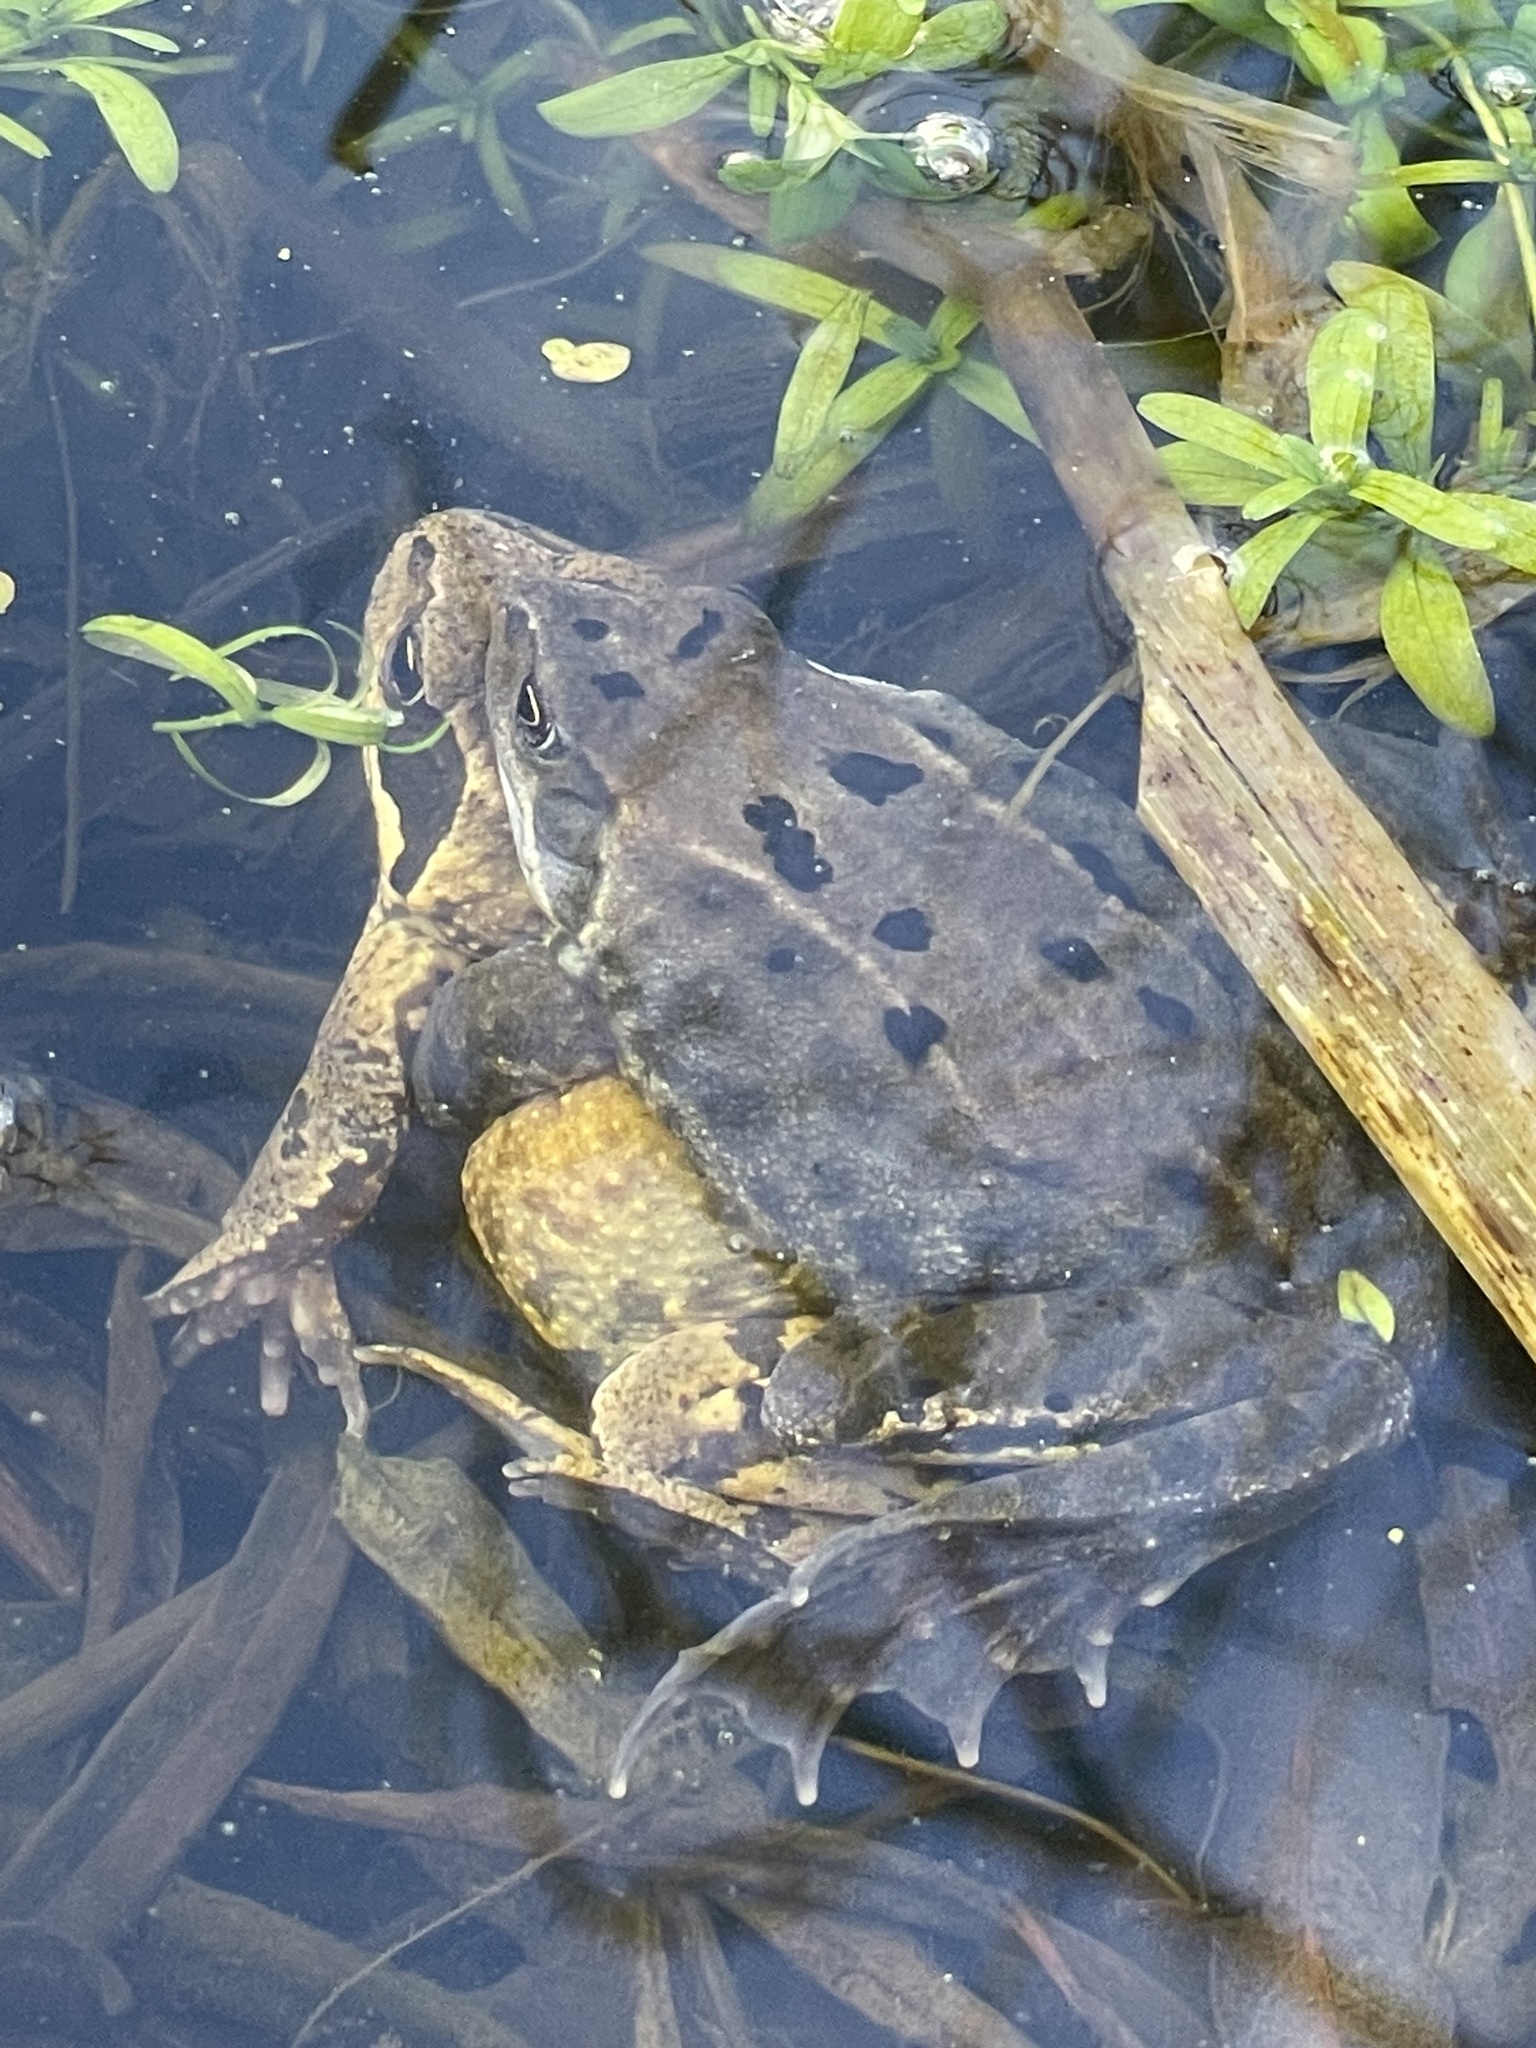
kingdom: Animalia
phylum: Chordata
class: Amphibia
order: Anura
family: Ranidae
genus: Rana
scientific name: Rana temporaria
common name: Common frog
